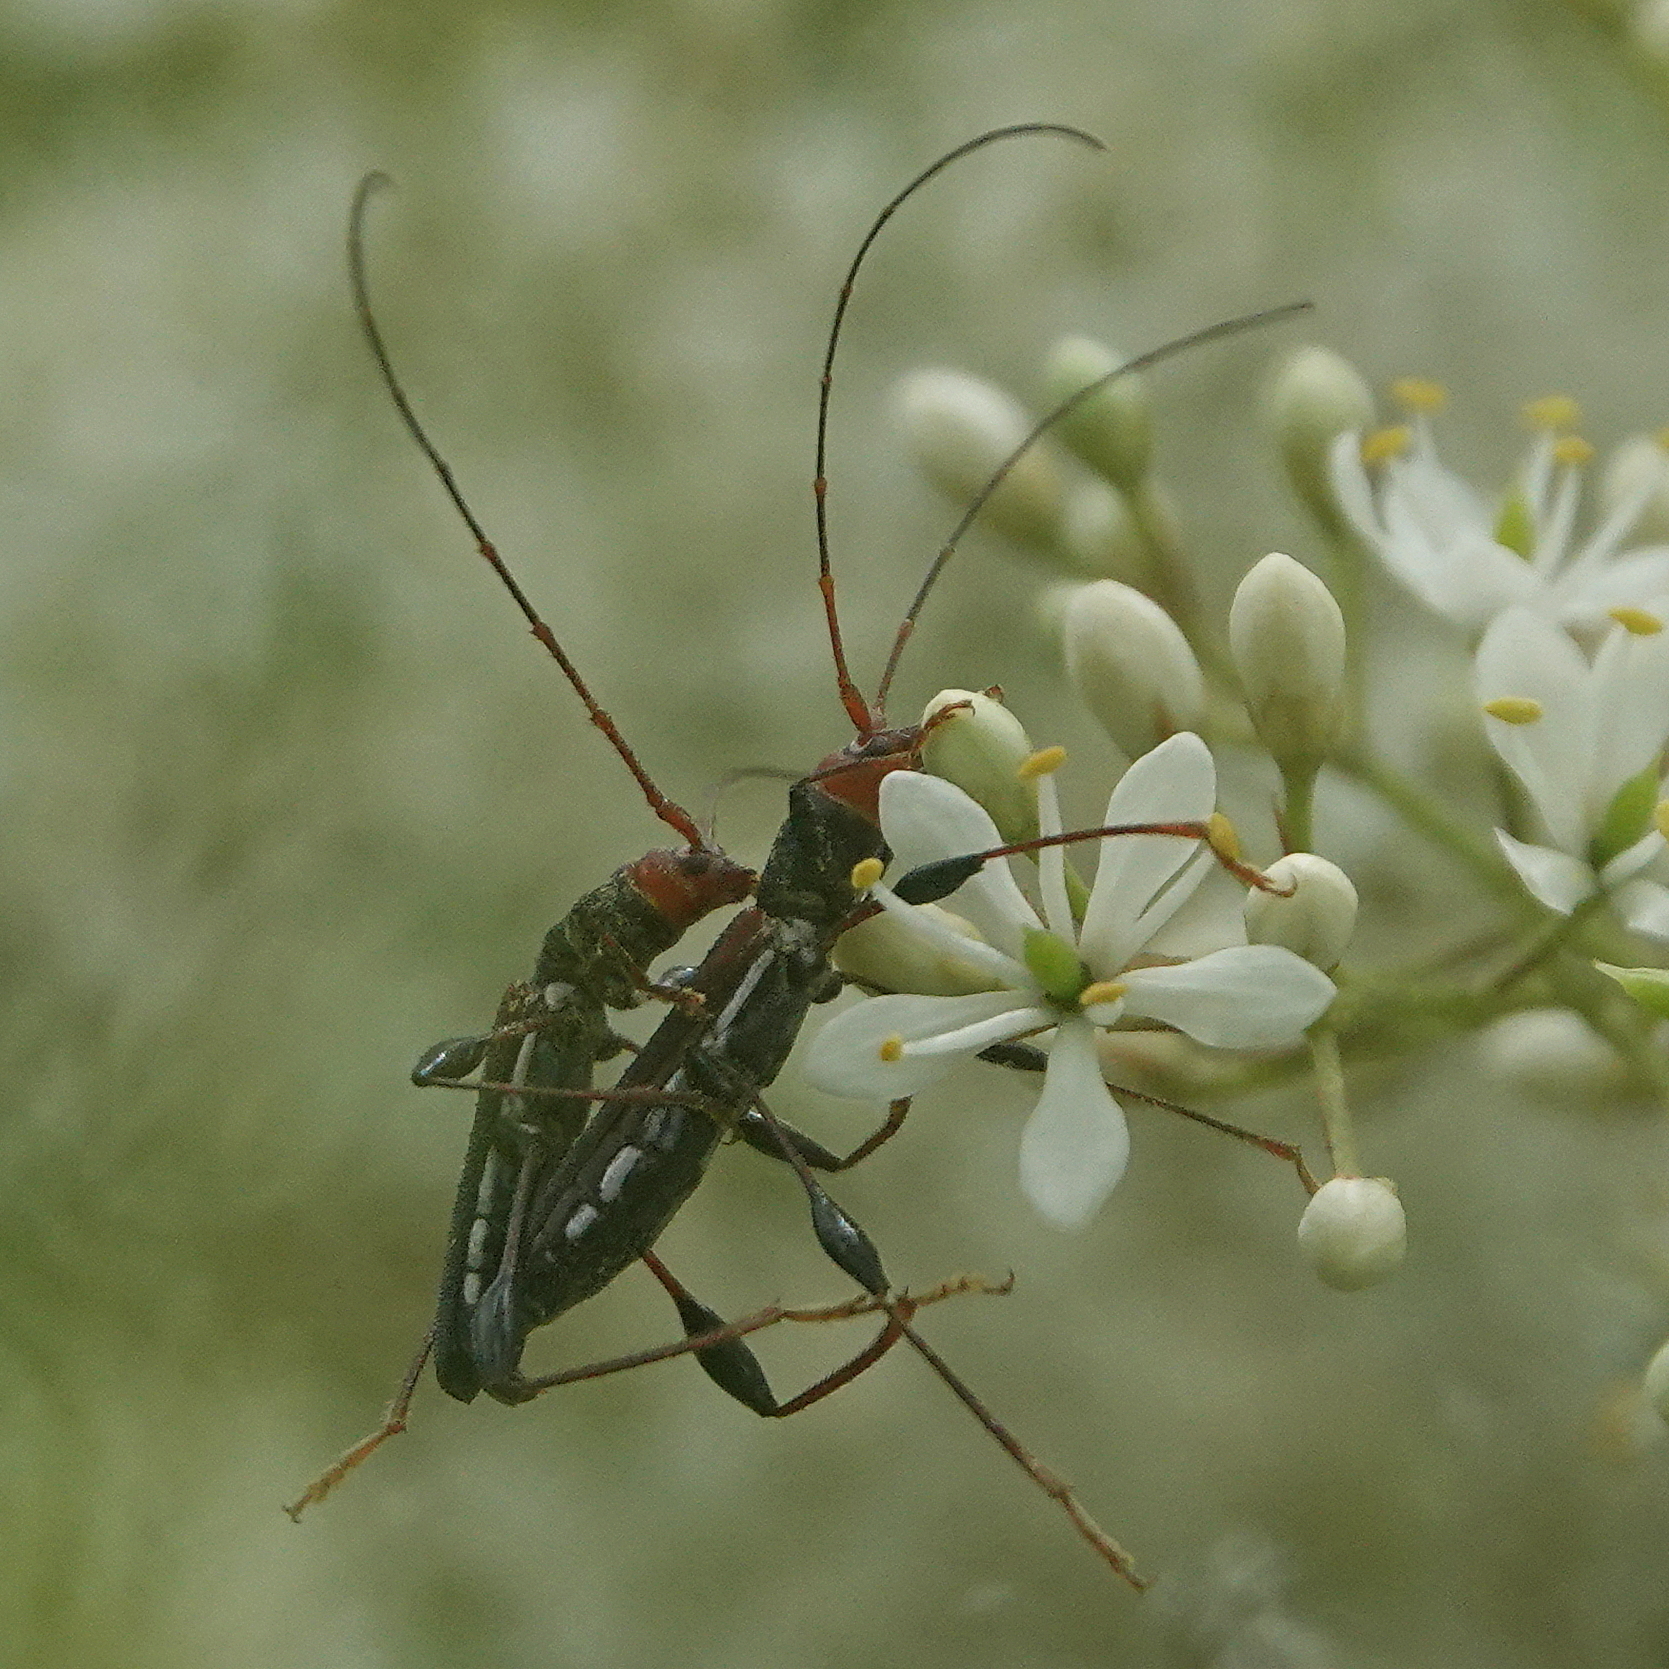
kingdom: Animalia
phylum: Arthropoda
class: Insecta
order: Coleoptera
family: Cerambycidae
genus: Amphirhoe
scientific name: Amphirhoe sloanei
